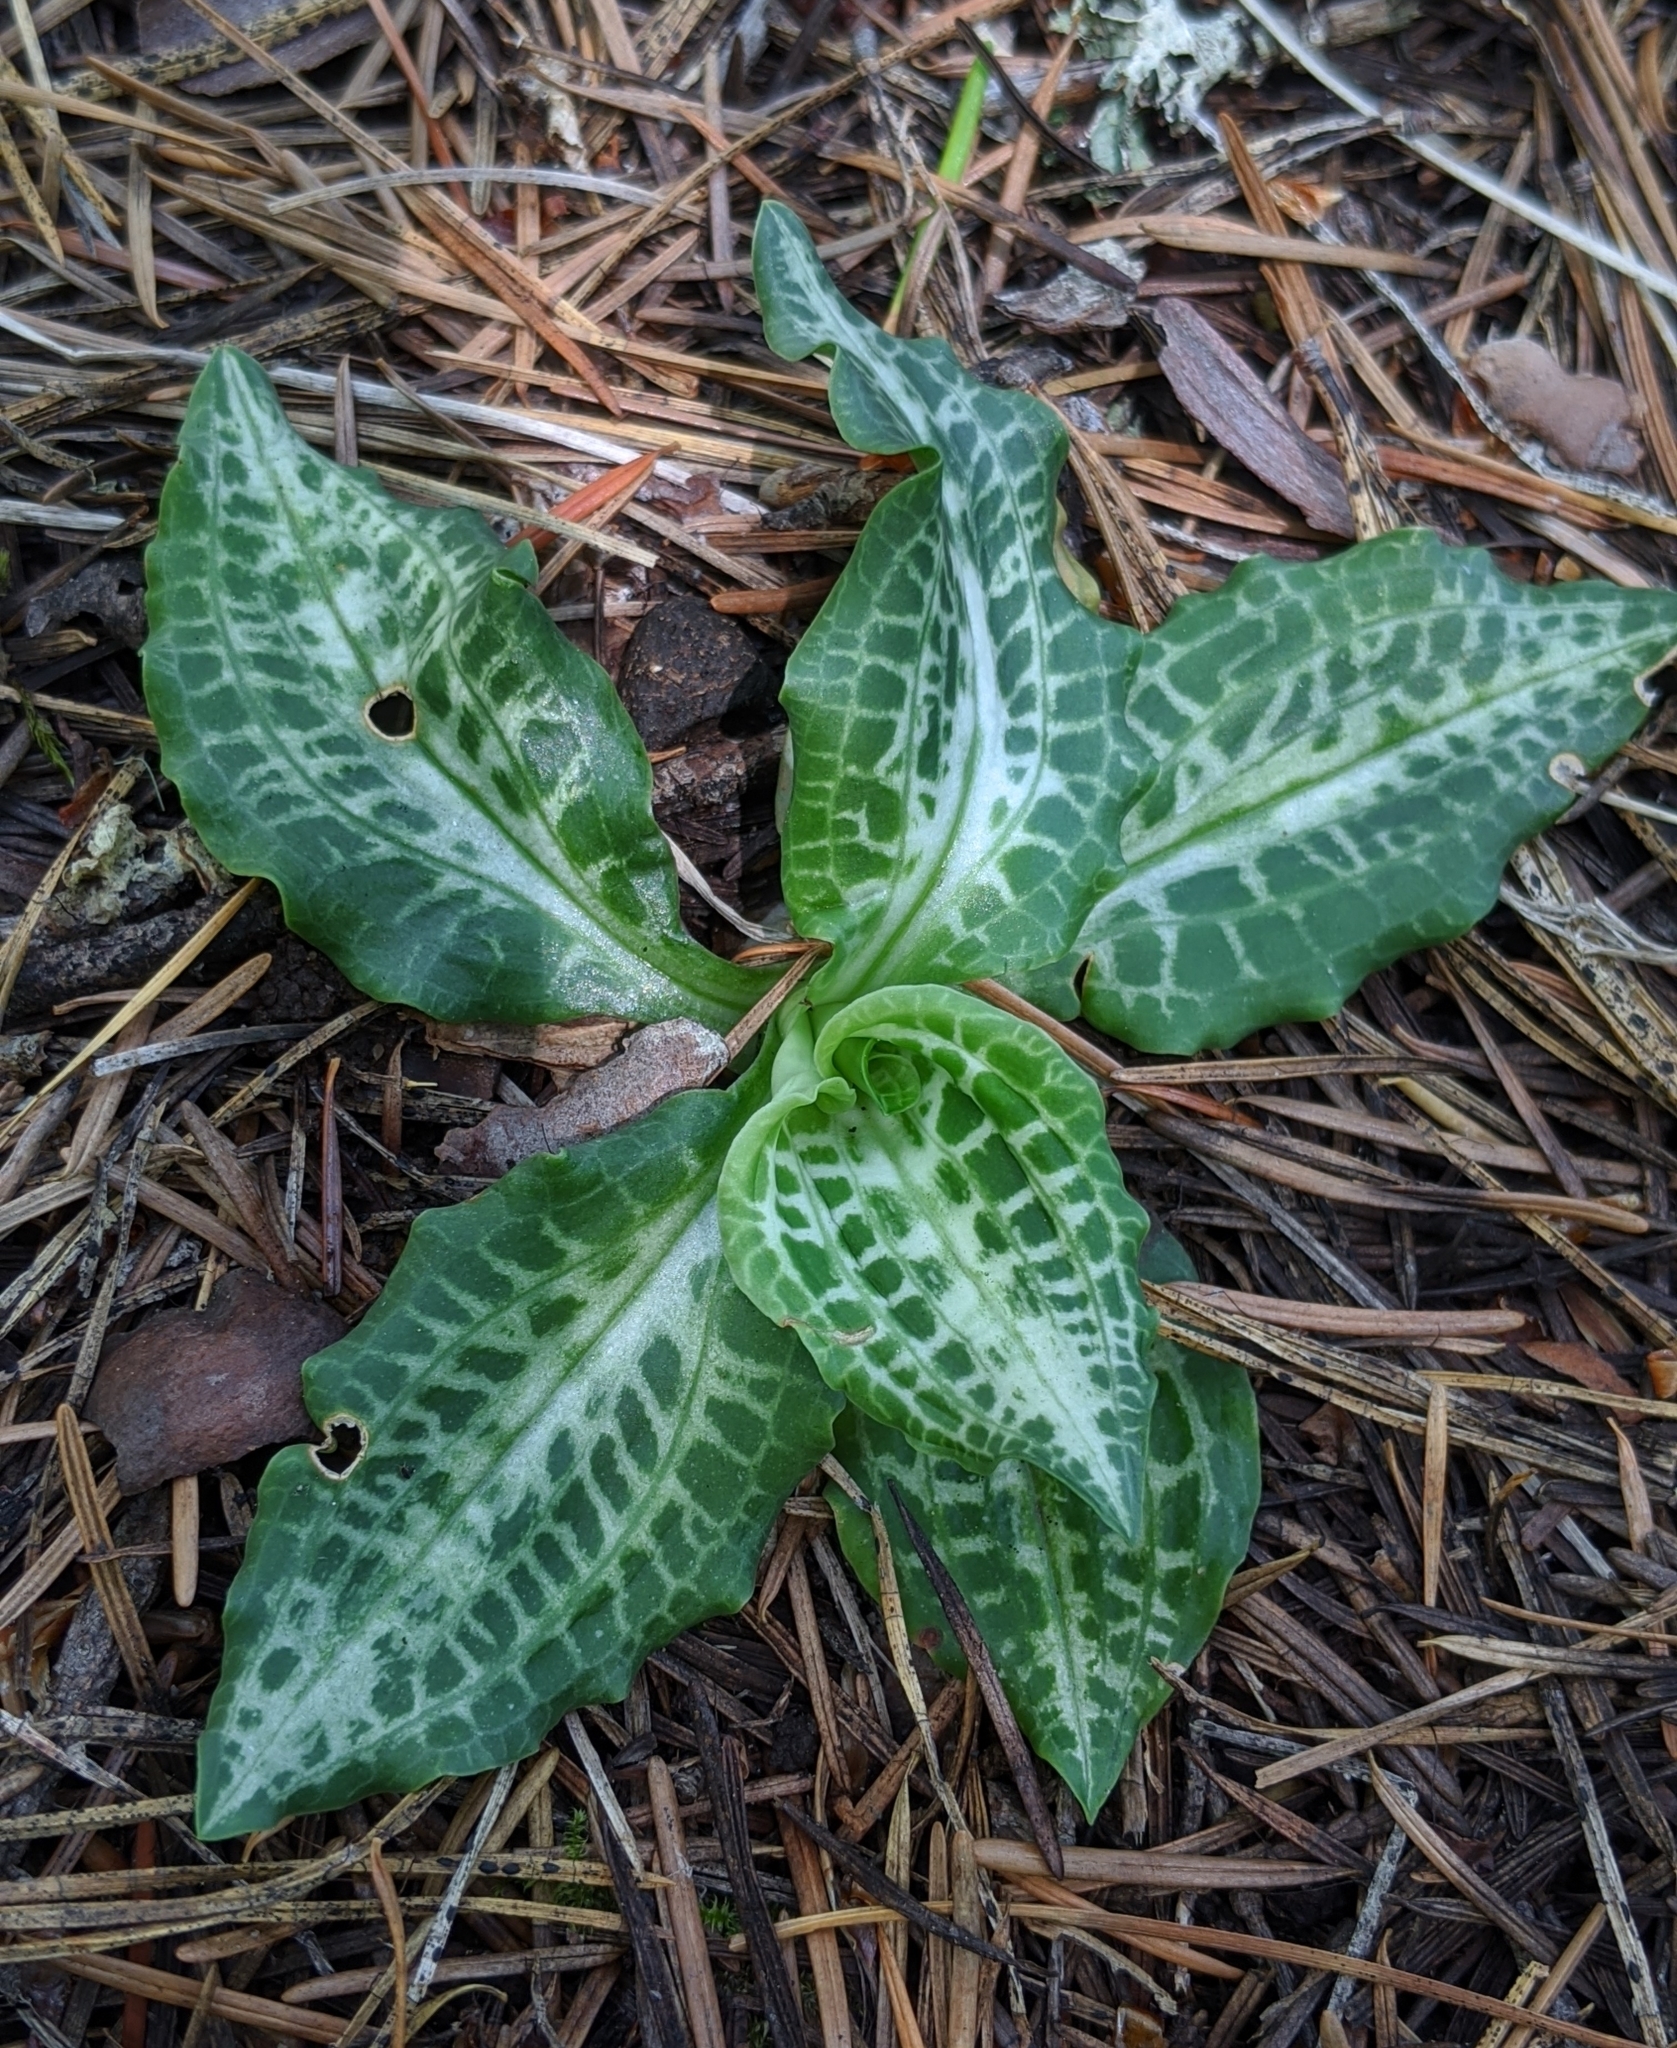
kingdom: Plantae
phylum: Tracheophyta
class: Liliopsida
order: Asparagales
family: Orchidaceae
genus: Goodyera
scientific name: Goodyera oblongifolia
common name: Giant rattlesnake-plantain
